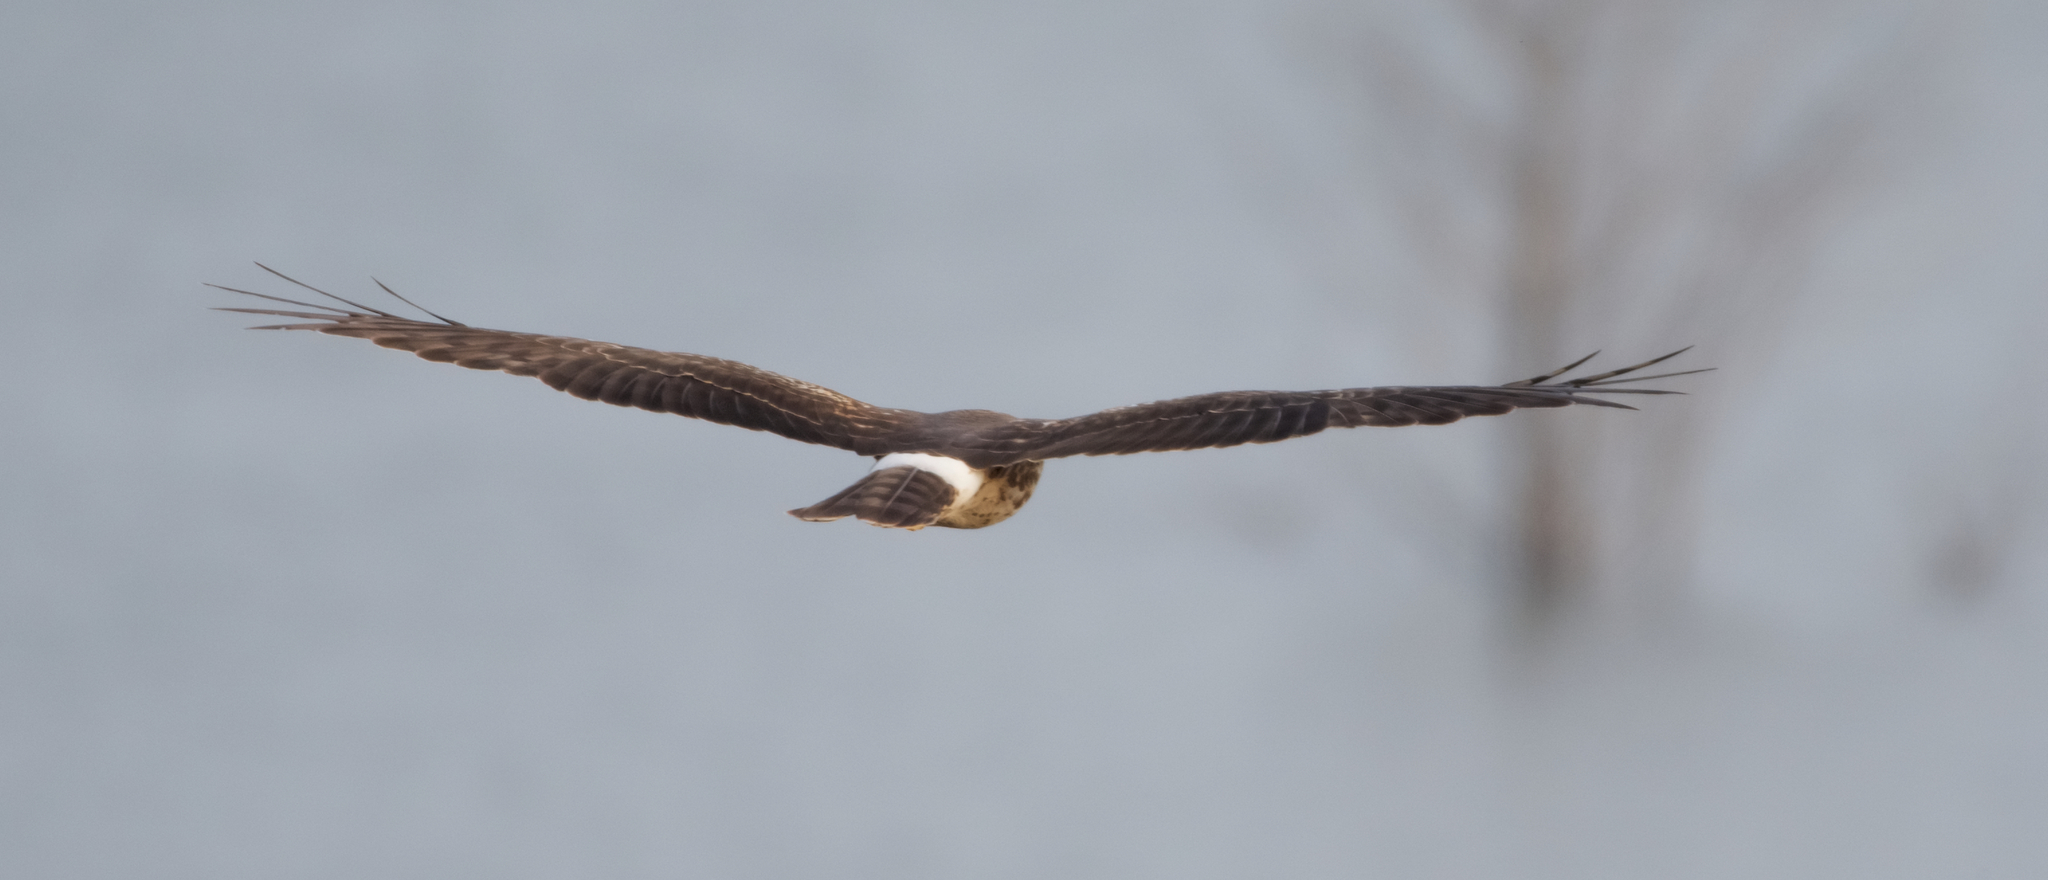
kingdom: Animalia
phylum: Chordata
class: Aves
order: Accipitriformes
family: Accipitridae
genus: Circus
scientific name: Circus cyaneus
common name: Hen harrier
